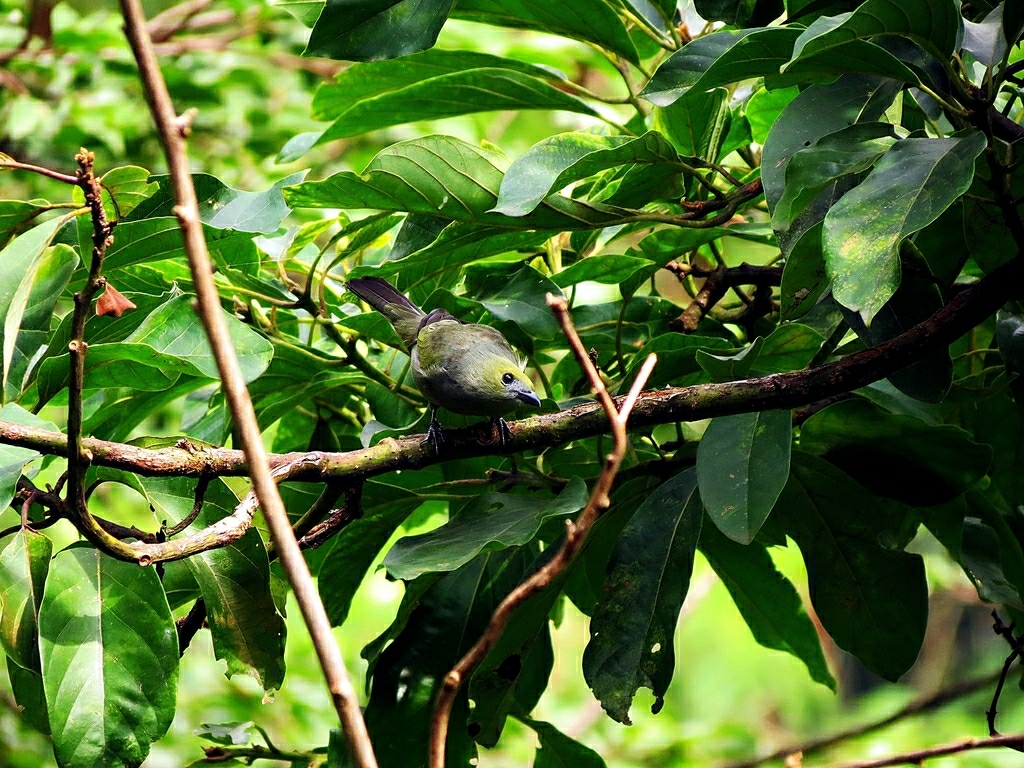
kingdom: Animalia
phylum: Chordata
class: Aves
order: Passeriformes
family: Thraupidae
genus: Thraupis
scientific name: Thraupis palmarum
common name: Palm tanager
